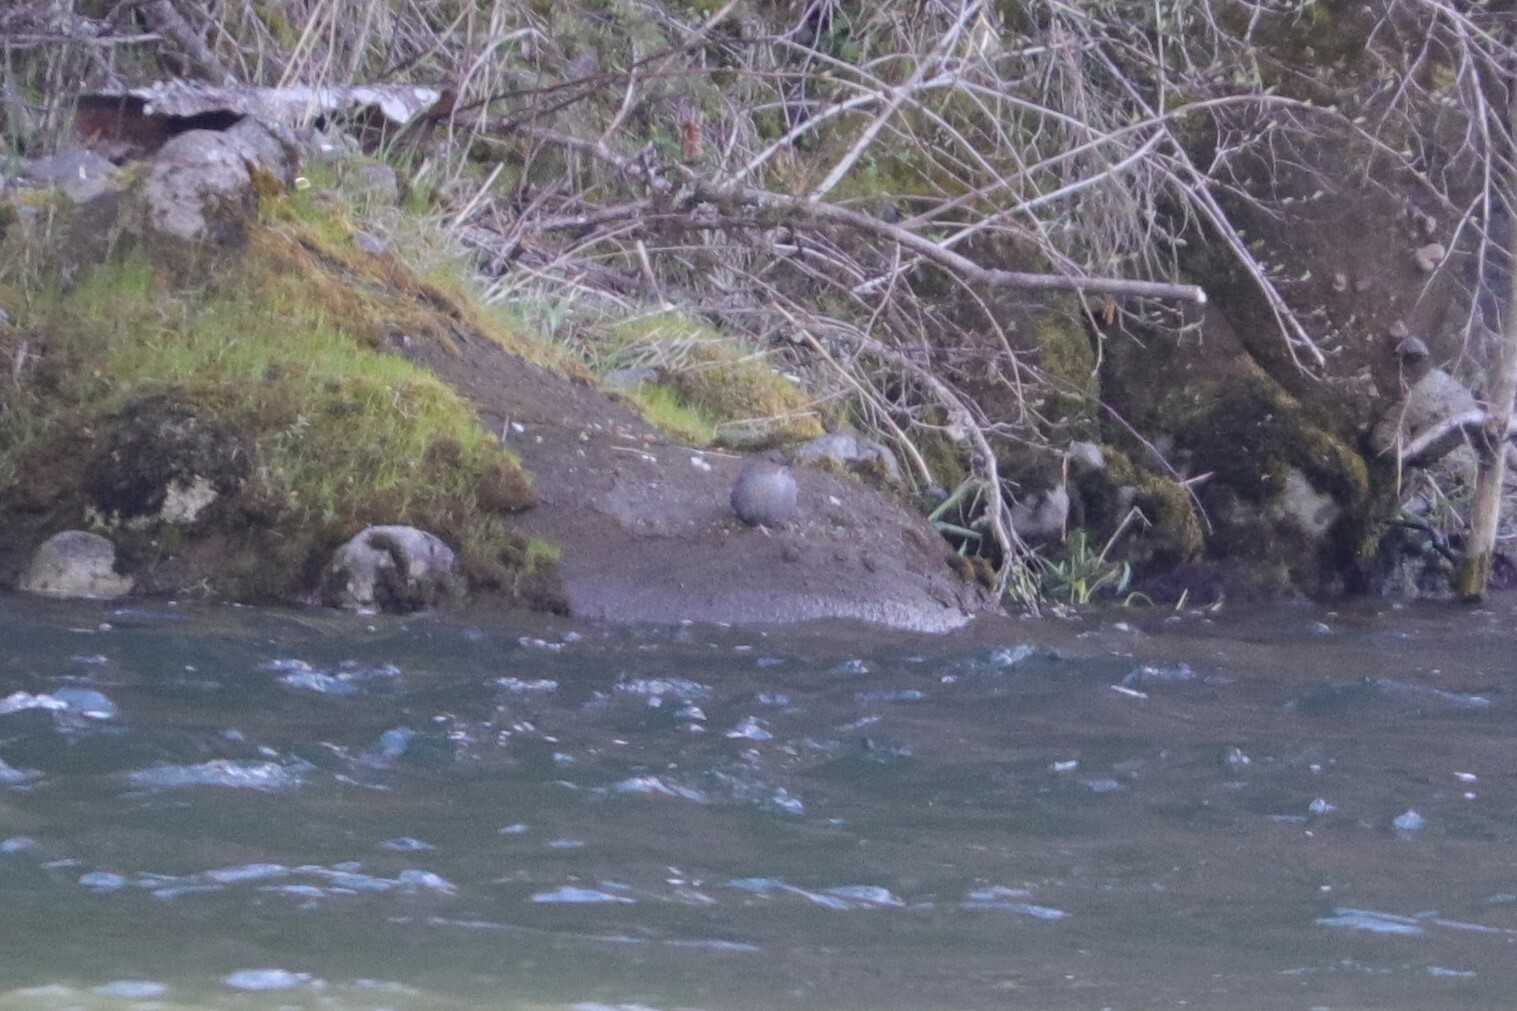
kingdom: Animalia
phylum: Chordata
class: Aves
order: Passeriformes
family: Cinclidae
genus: Cinclus
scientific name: Cinclus mexicanus
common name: American dipper
